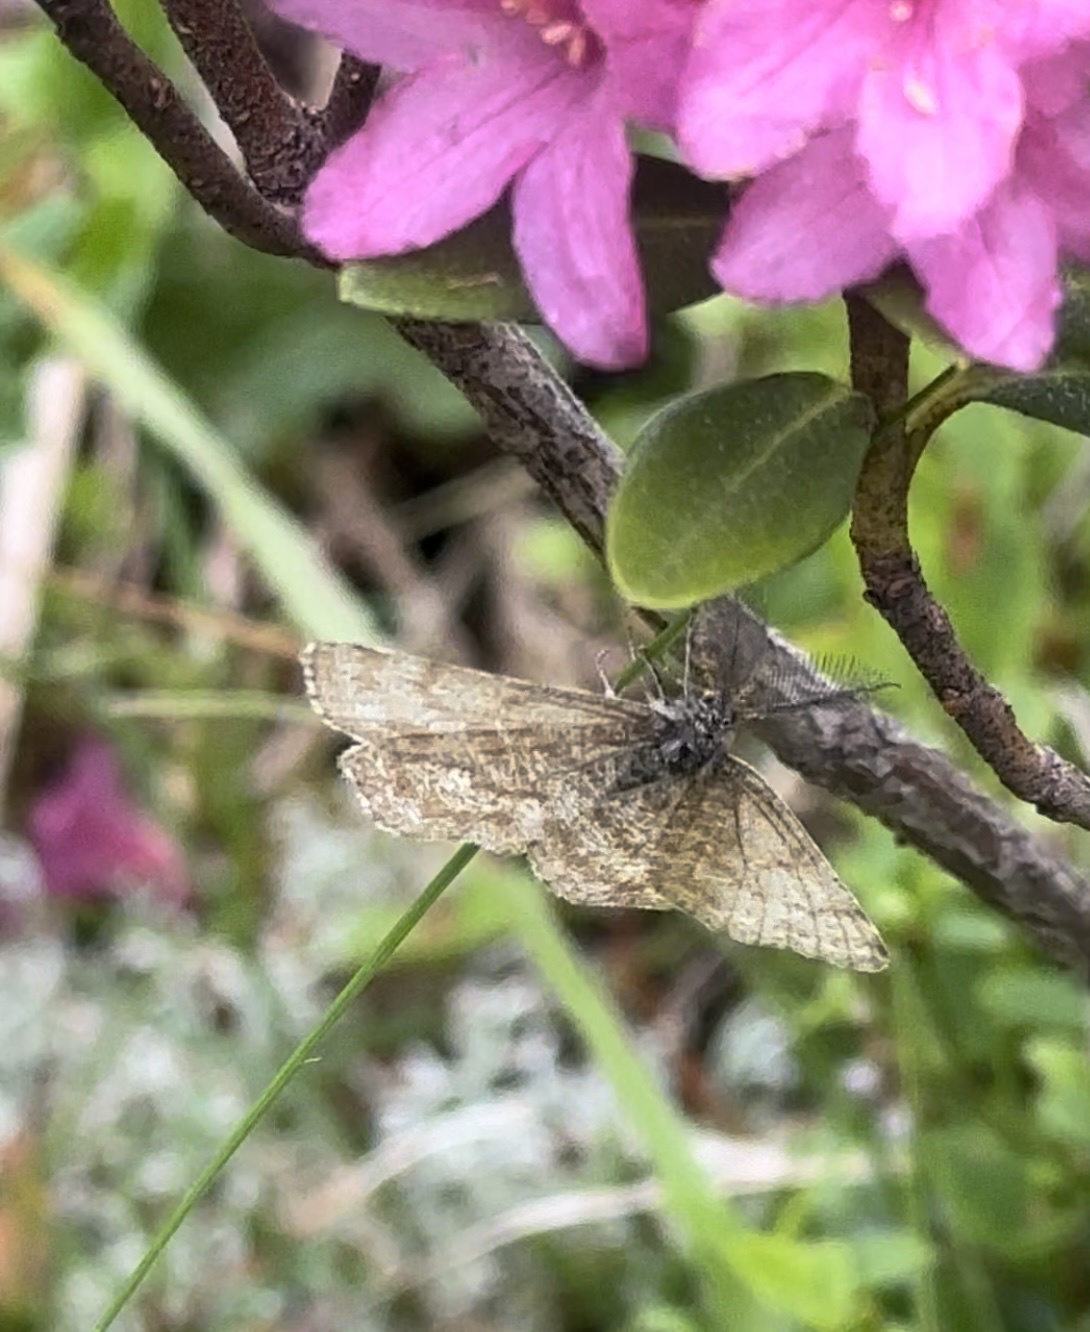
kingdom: Animalia
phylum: Arthropoda
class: Insecta
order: Lepidoptera
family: Geometridae
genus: Ematurga
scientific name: Ematurga atomaria
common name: Common heath
